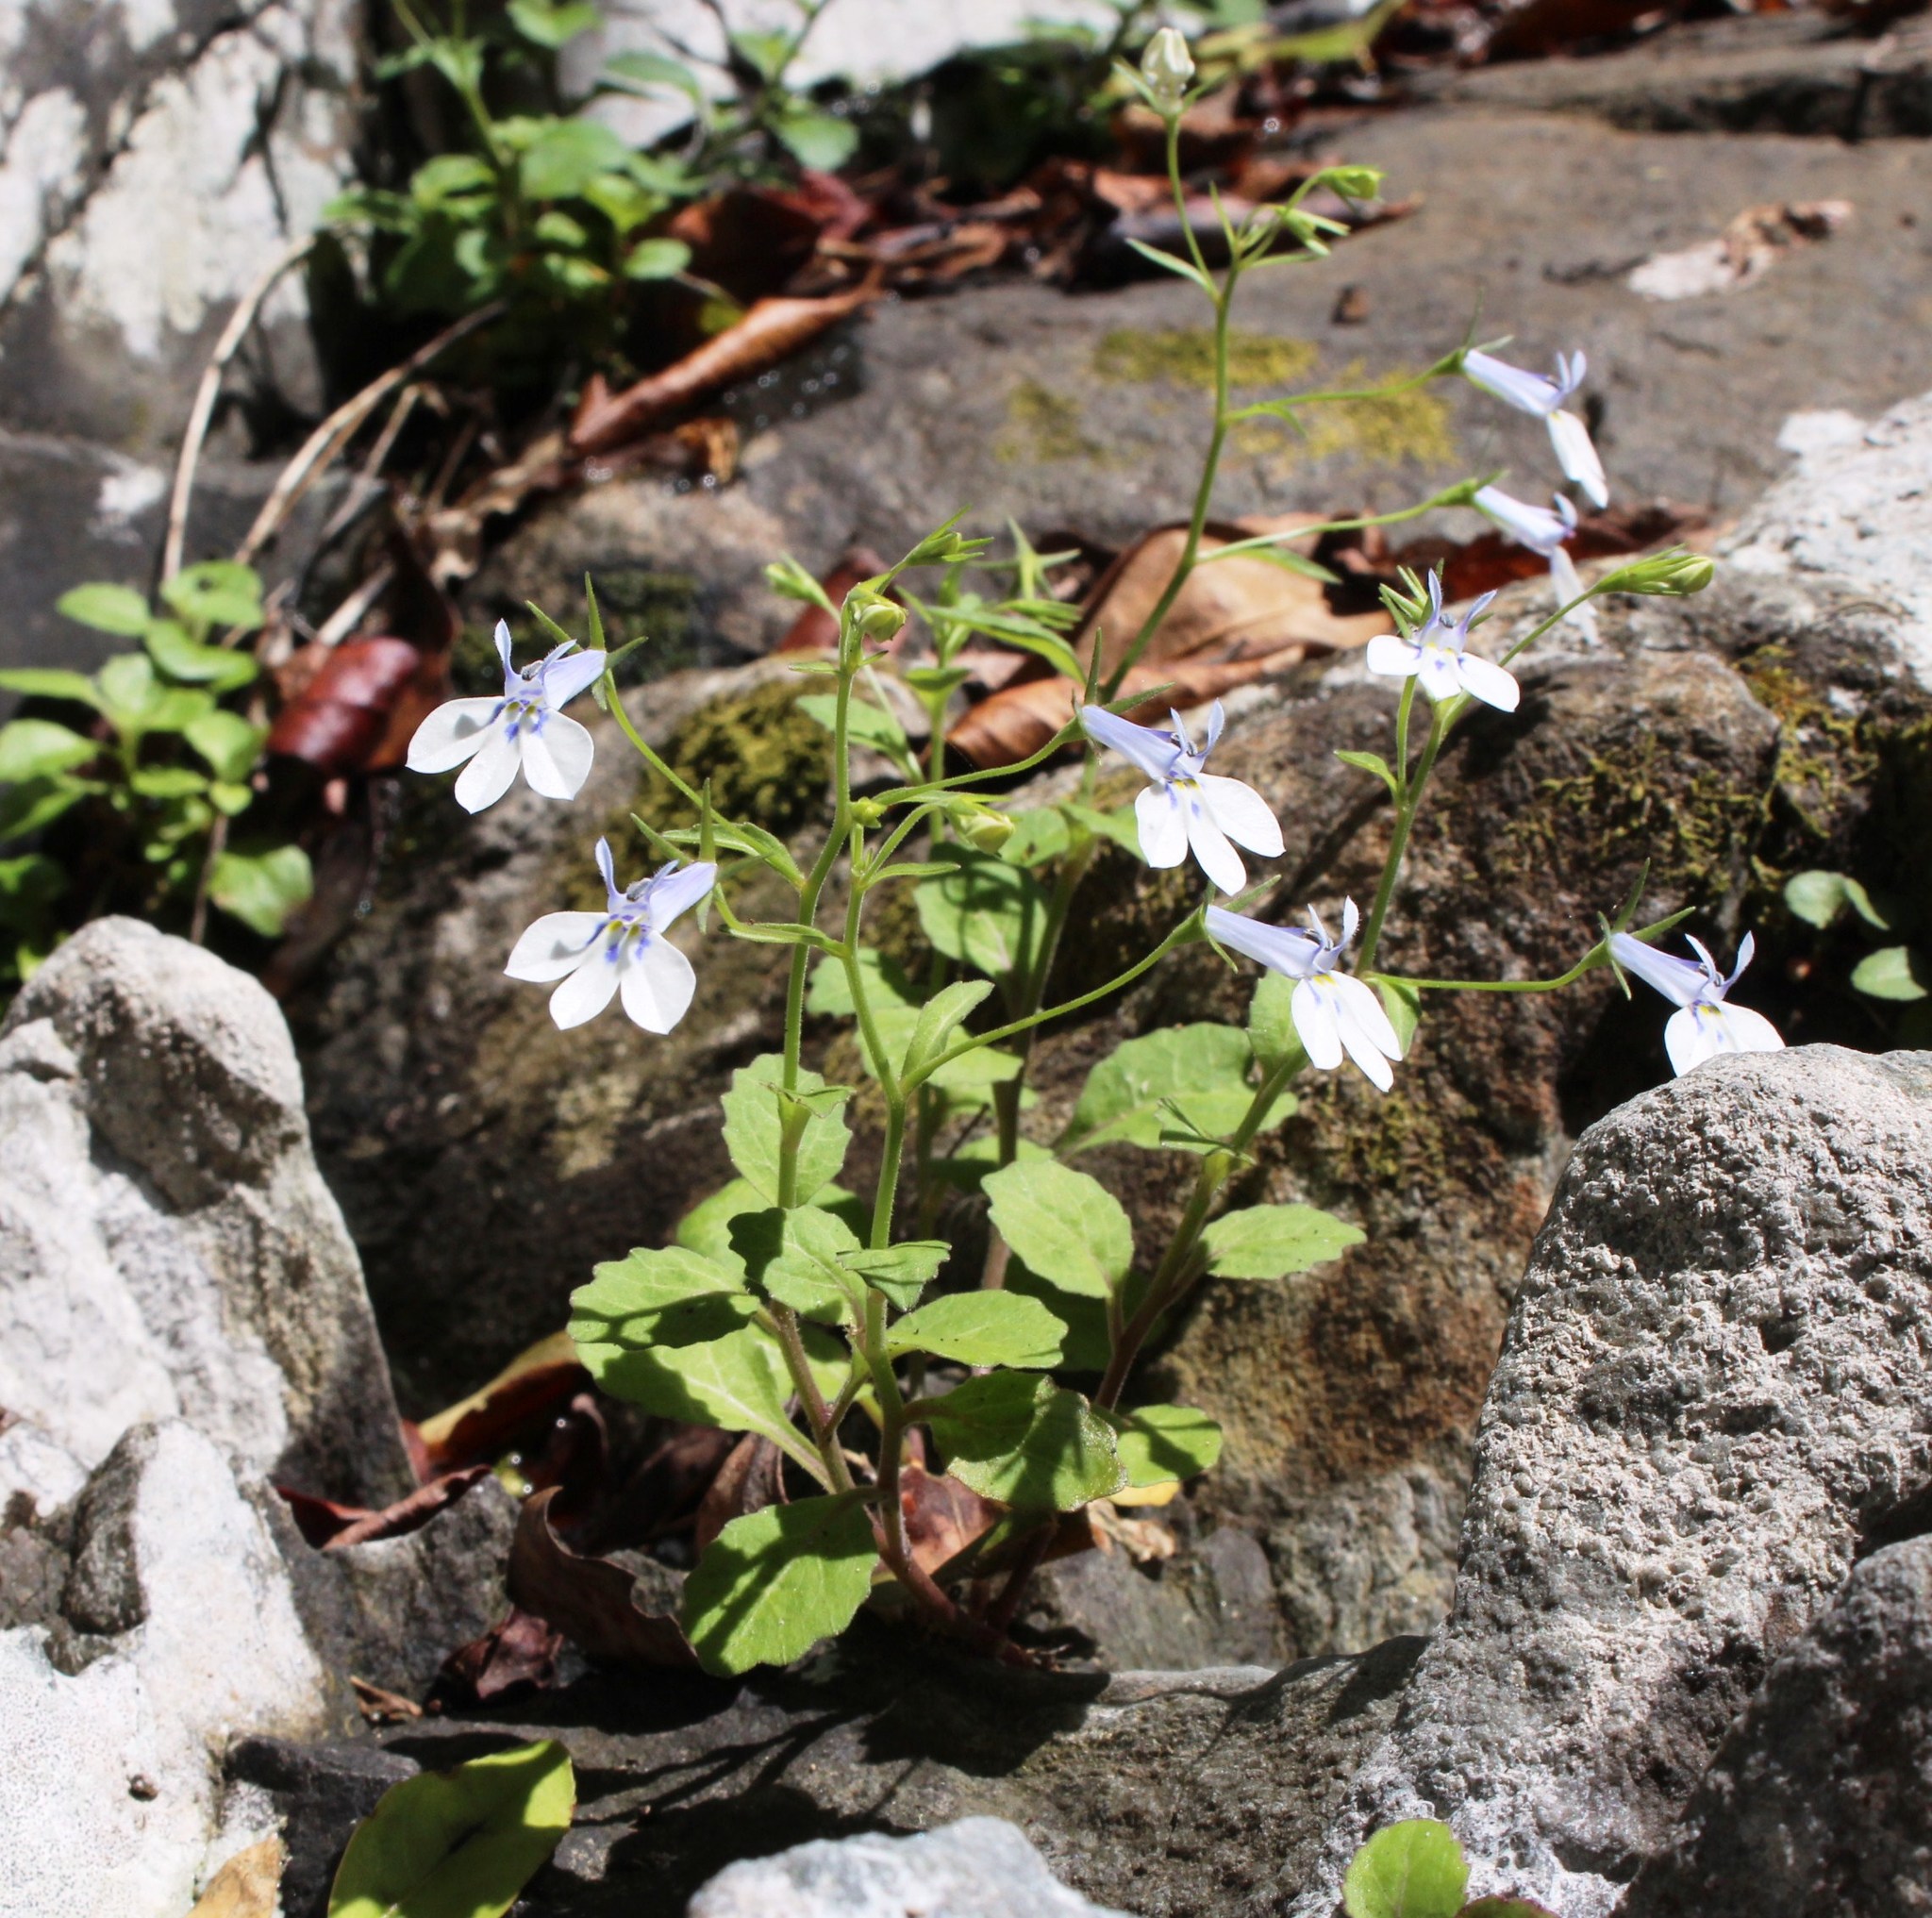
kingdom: Plantae
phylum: Tracheophyta
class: Magnoliopsida
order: Asterales
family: Campanulaceae
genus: Lobelia
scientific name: Lobelia cuneifolia
